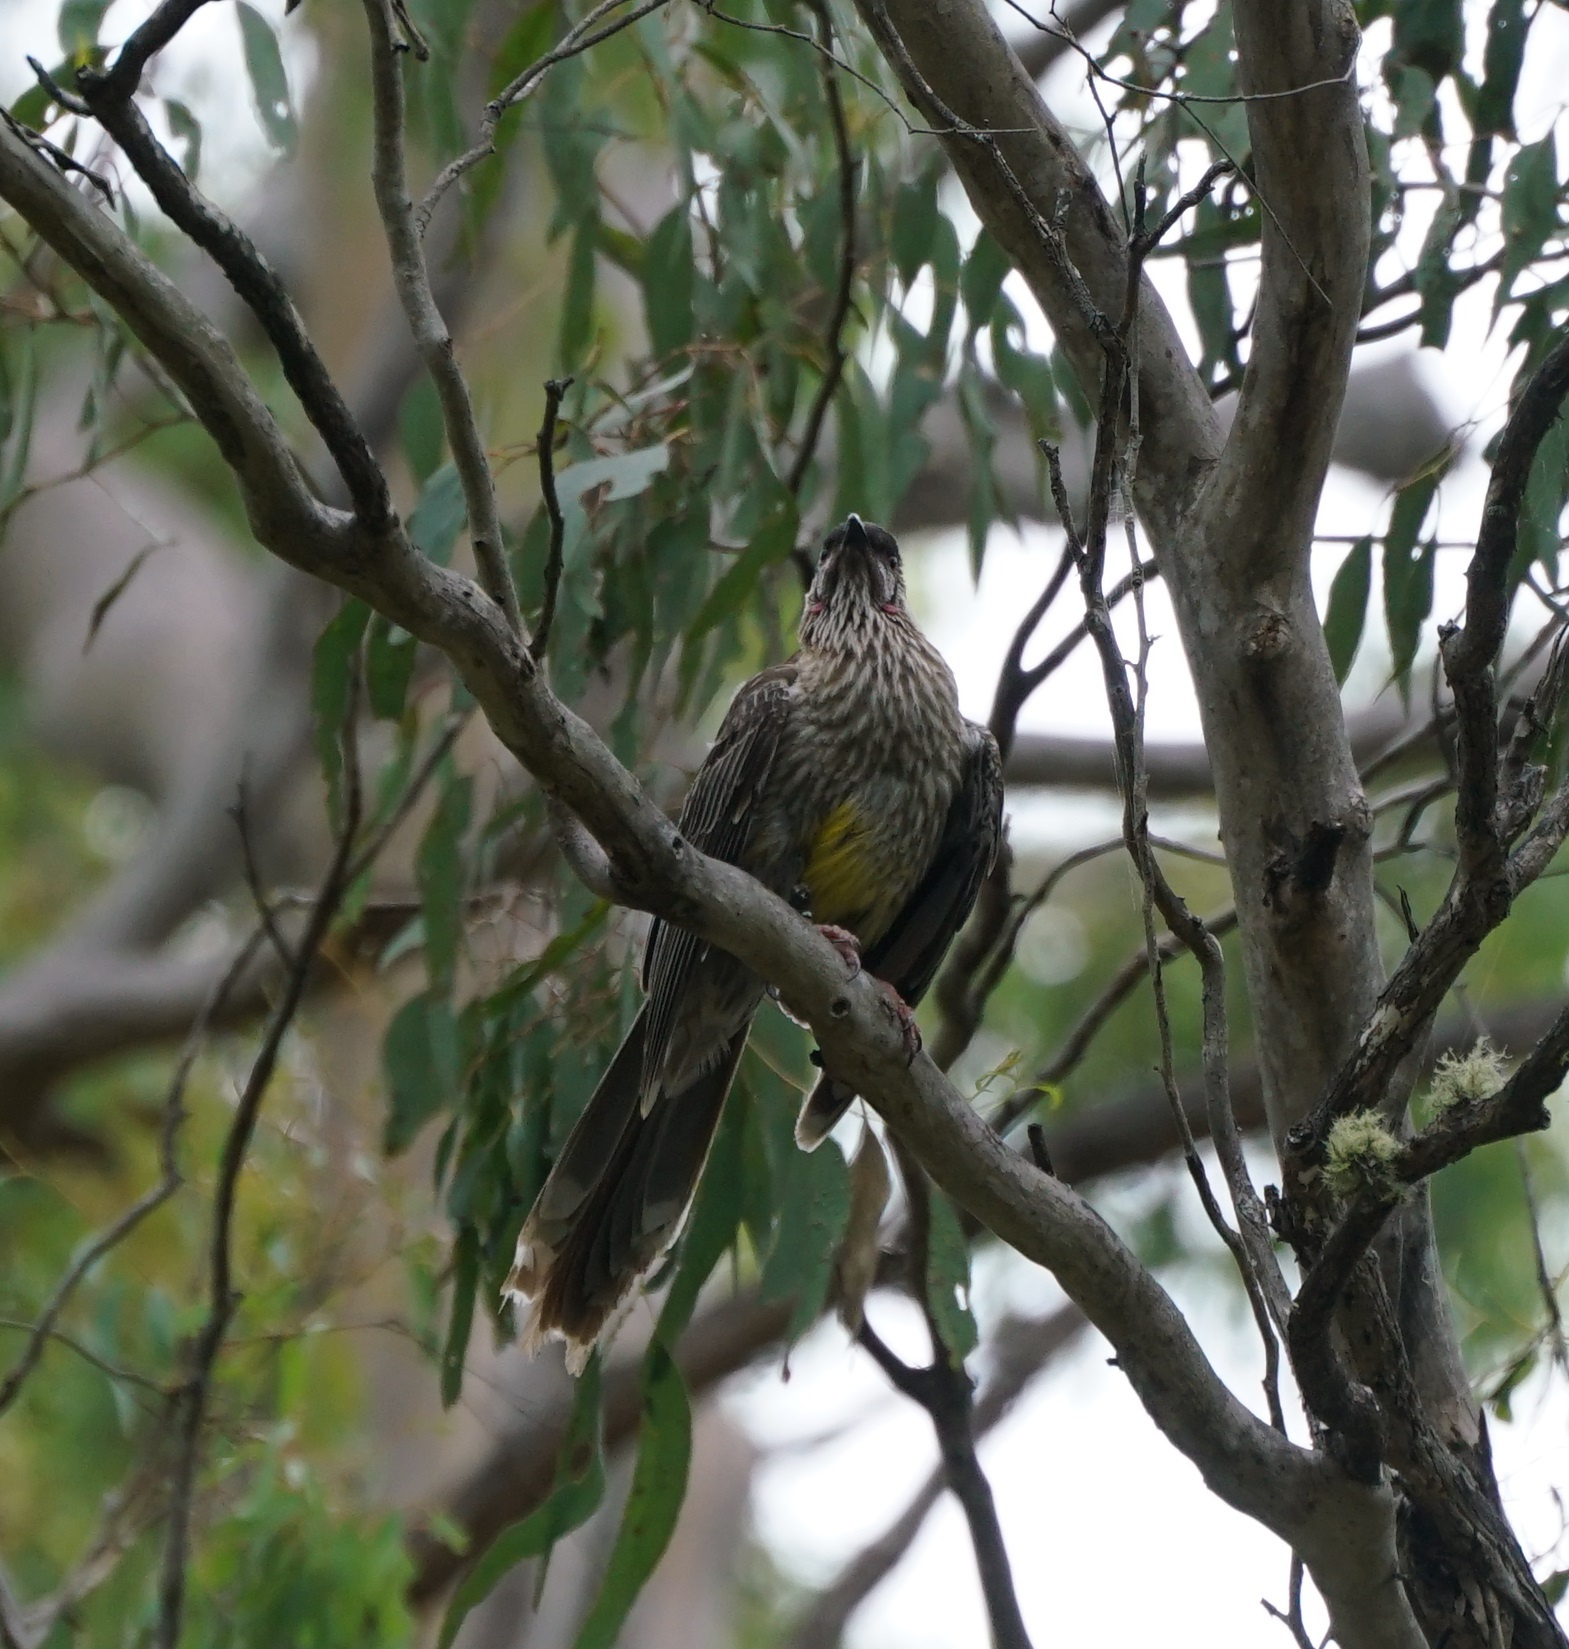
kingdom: Animalia
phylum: Chordata
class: Aves
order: Passeriformes
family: Meliphagidae
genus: Anthochaera
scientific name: Anthochaera carunculata
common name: Red wattlebird
